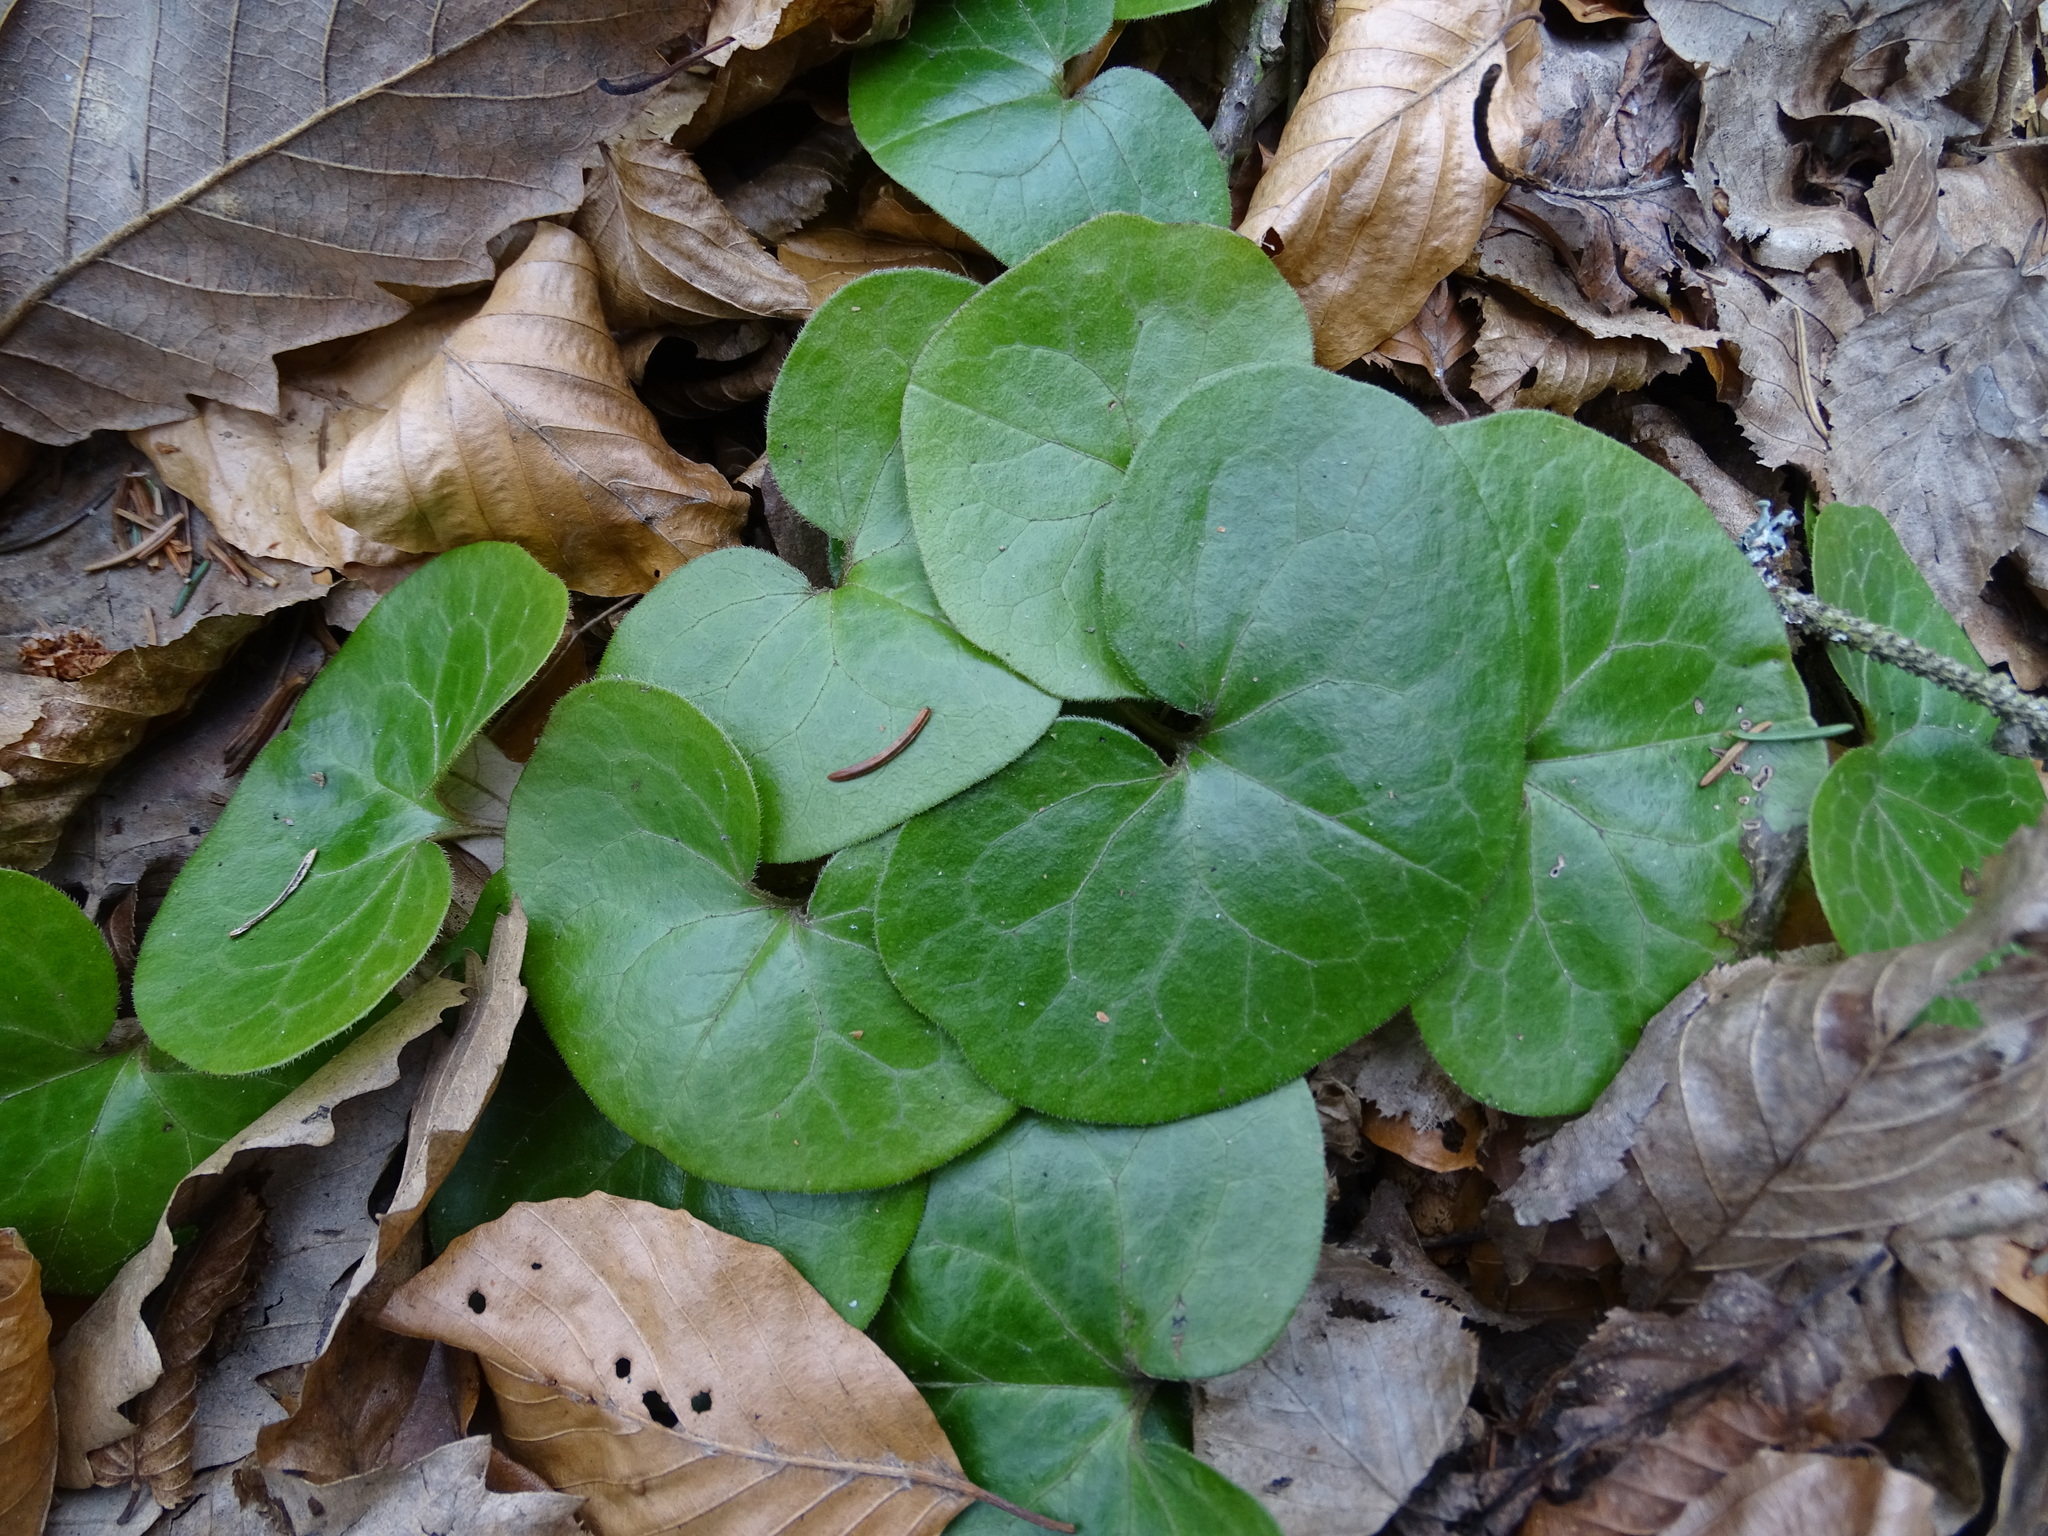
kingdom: Plantae
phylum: Tracheophyta
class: Magnoliopsida
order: Piperales
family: Aristolochiaceae
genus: Asarum
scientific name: Asarum europaeum
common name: Asarabacca
